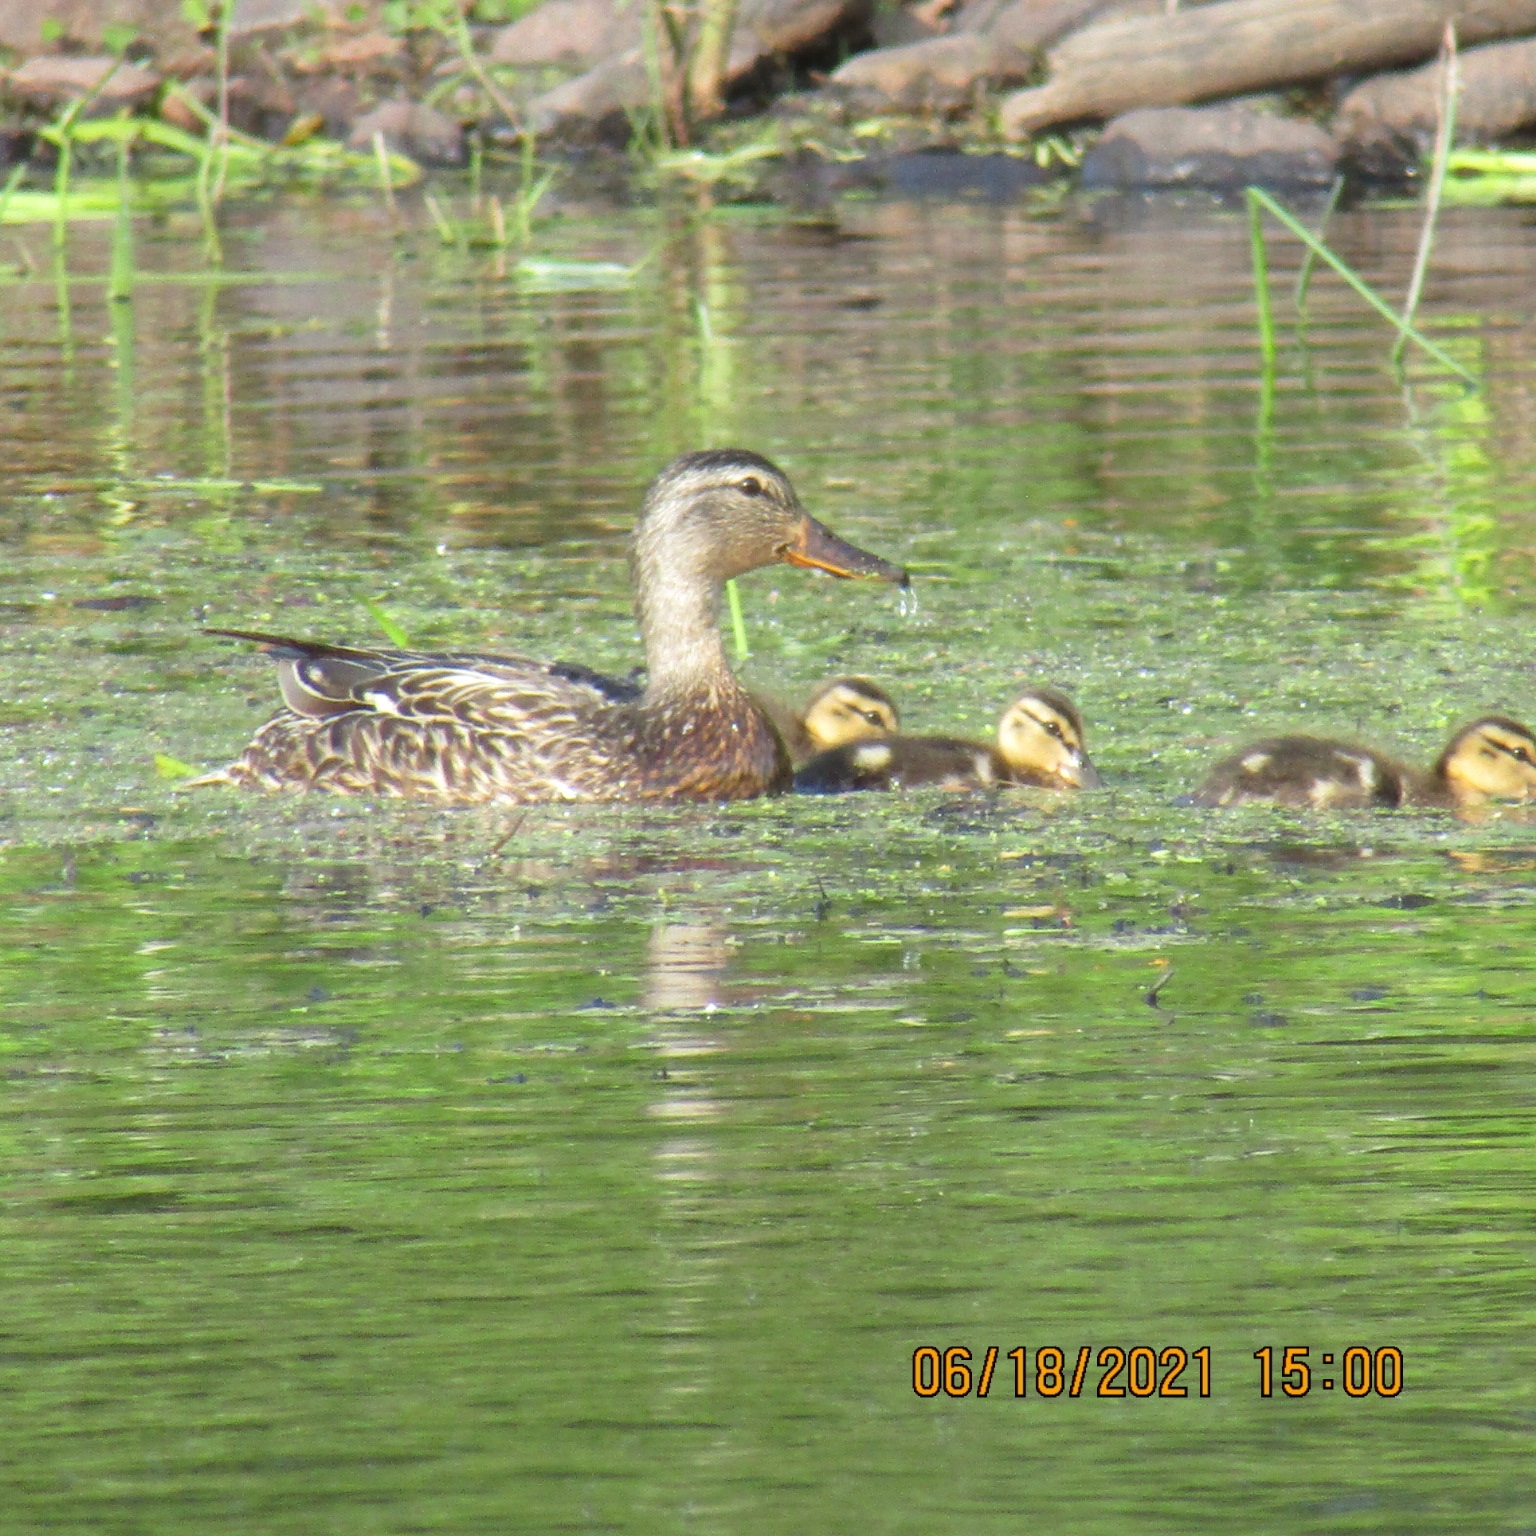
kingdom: Animalia
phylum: Chordata
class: Aves
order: Anseriformes
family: Anatidae
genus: Anas
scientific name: Anas platyrhynchos
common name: Mallard
